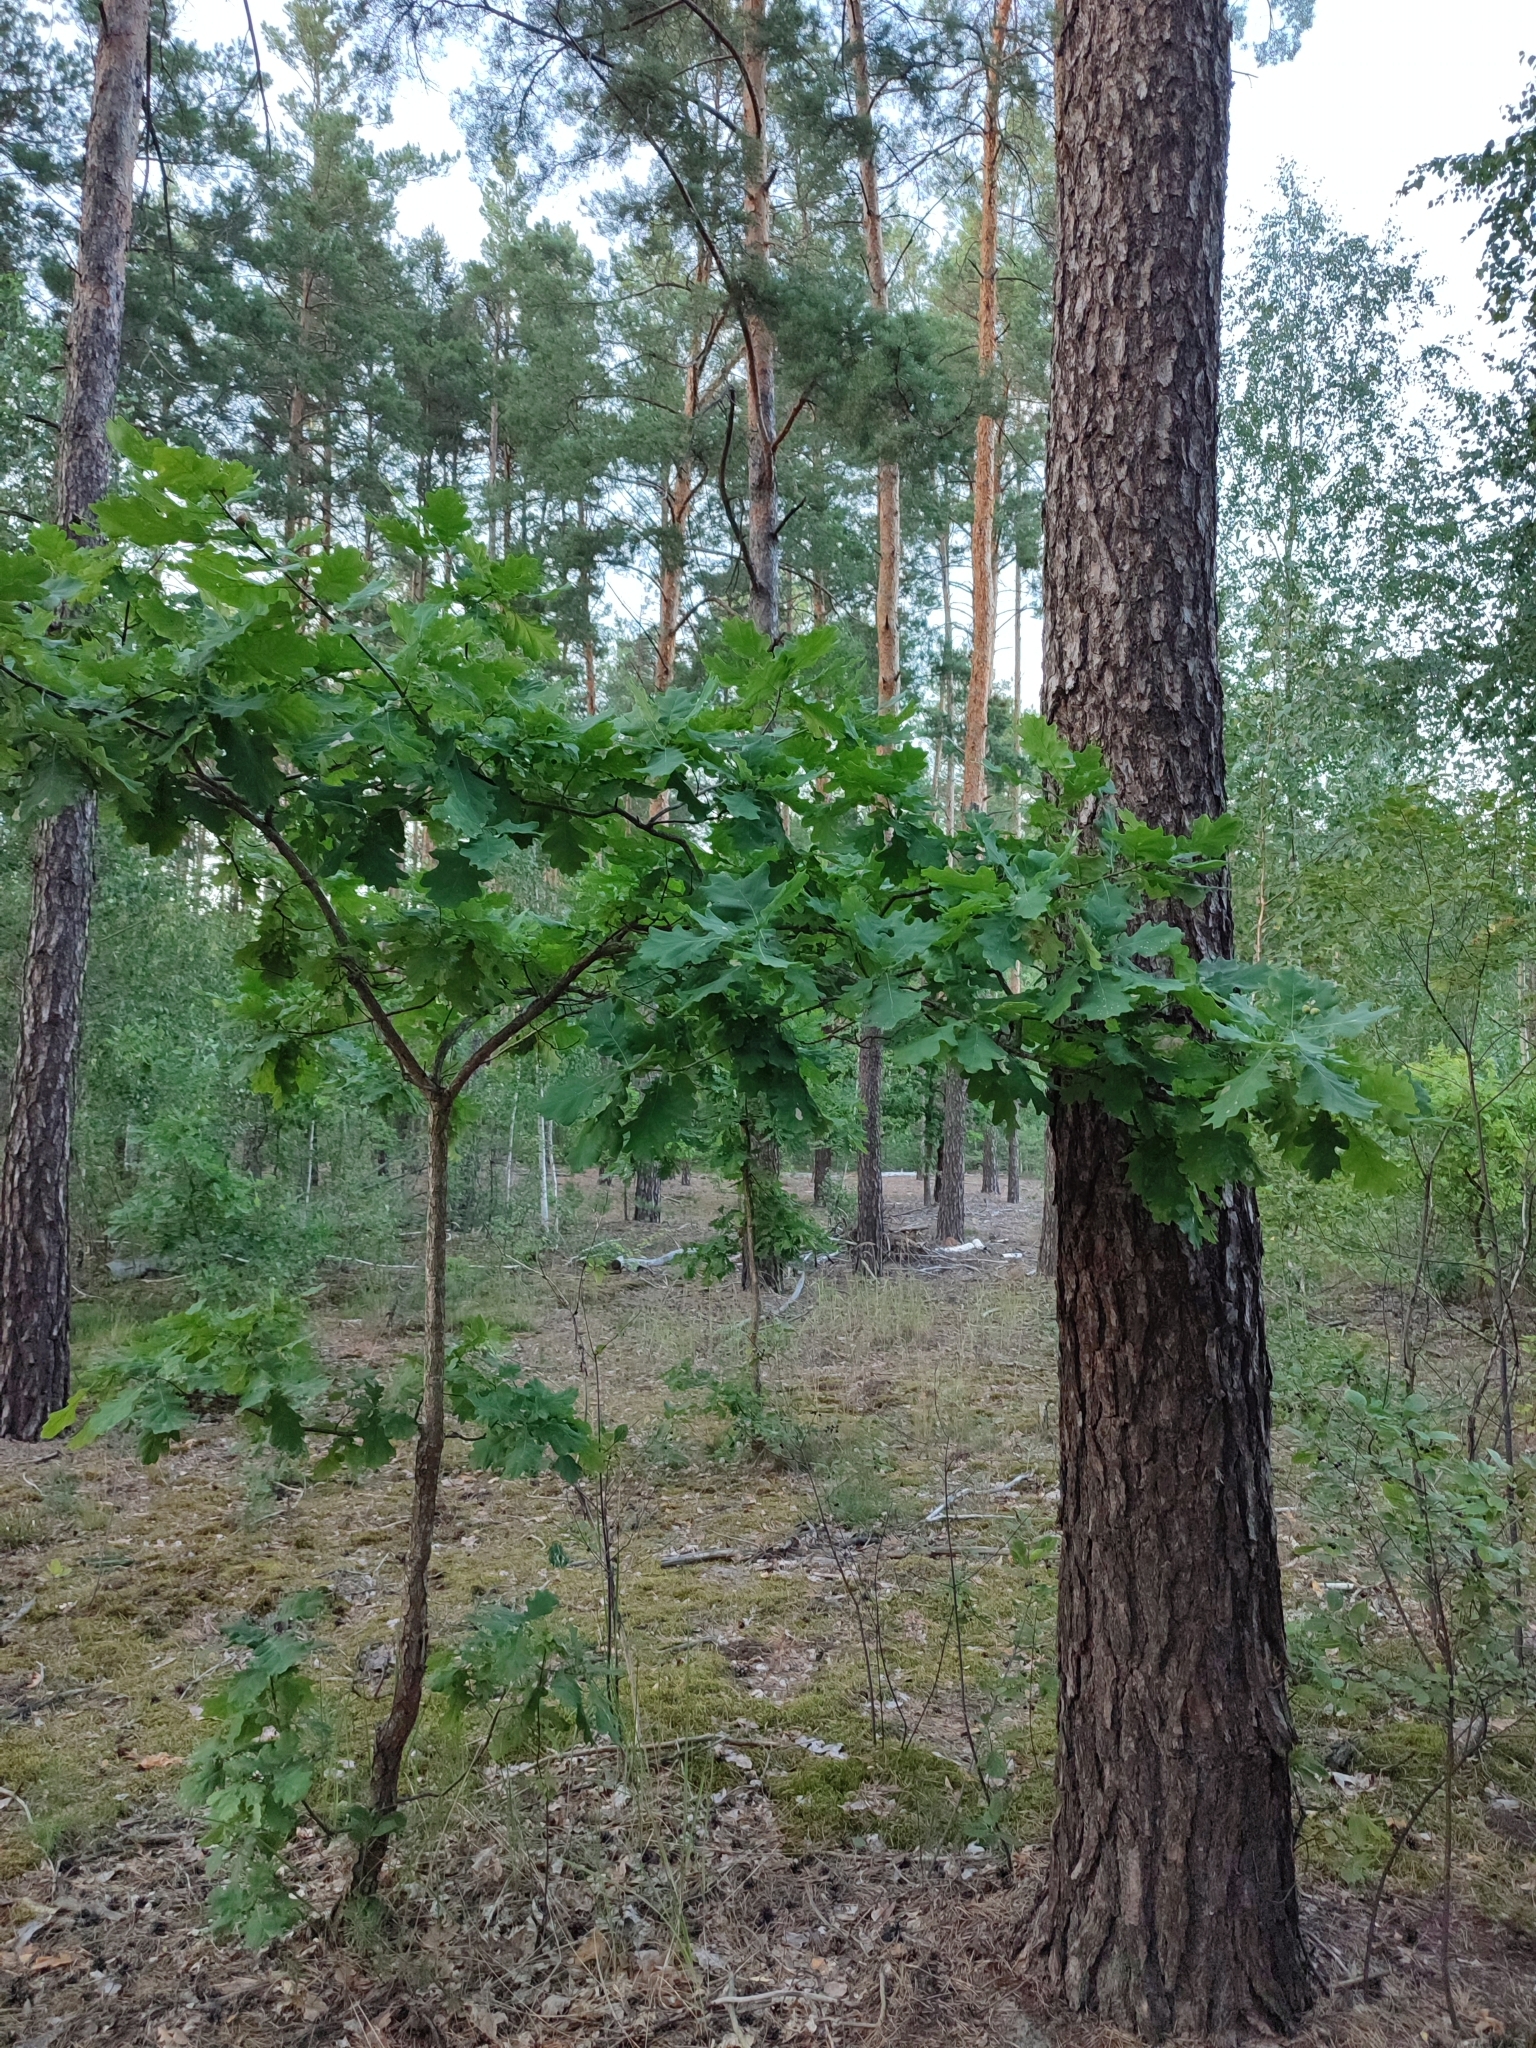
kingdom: Plantae
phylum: Tracheophyta
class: Magnoliopsida
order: Fagales
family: Fagaceae
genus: Quercus
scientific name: Quercus robur
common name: Pedunculate oak
